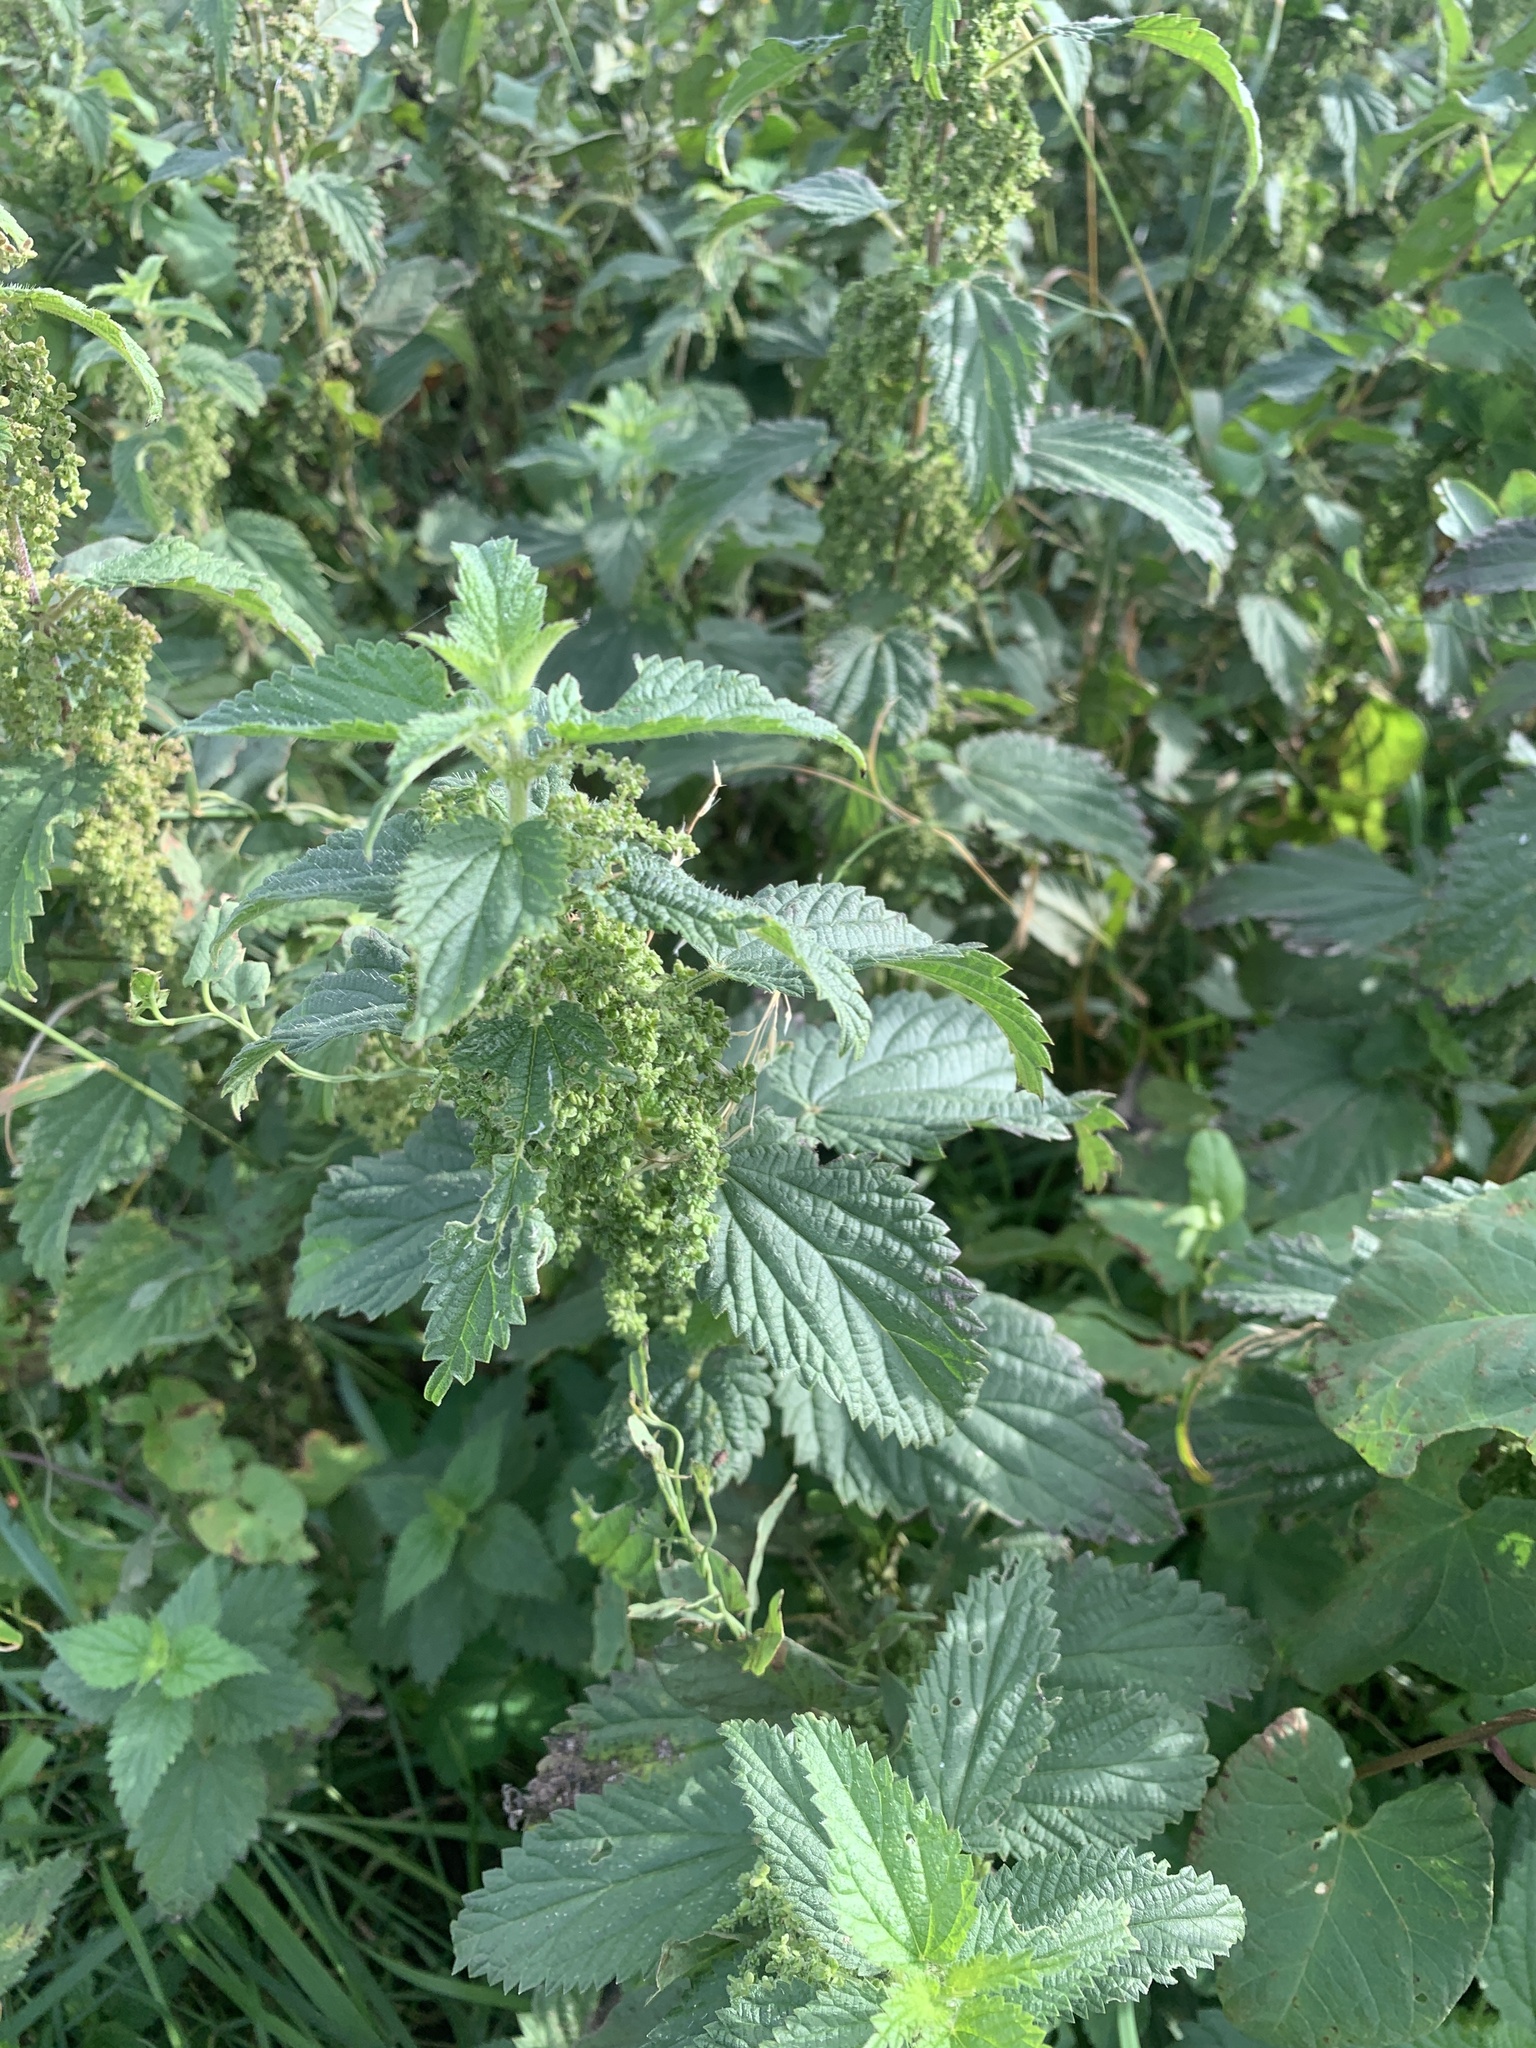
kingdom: Plantae
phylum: Tracheophyta
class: Magnoliopsida
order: Rosales
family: Urticaceae
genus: Urtica
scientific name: Urtica dioica
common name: Common nettle
